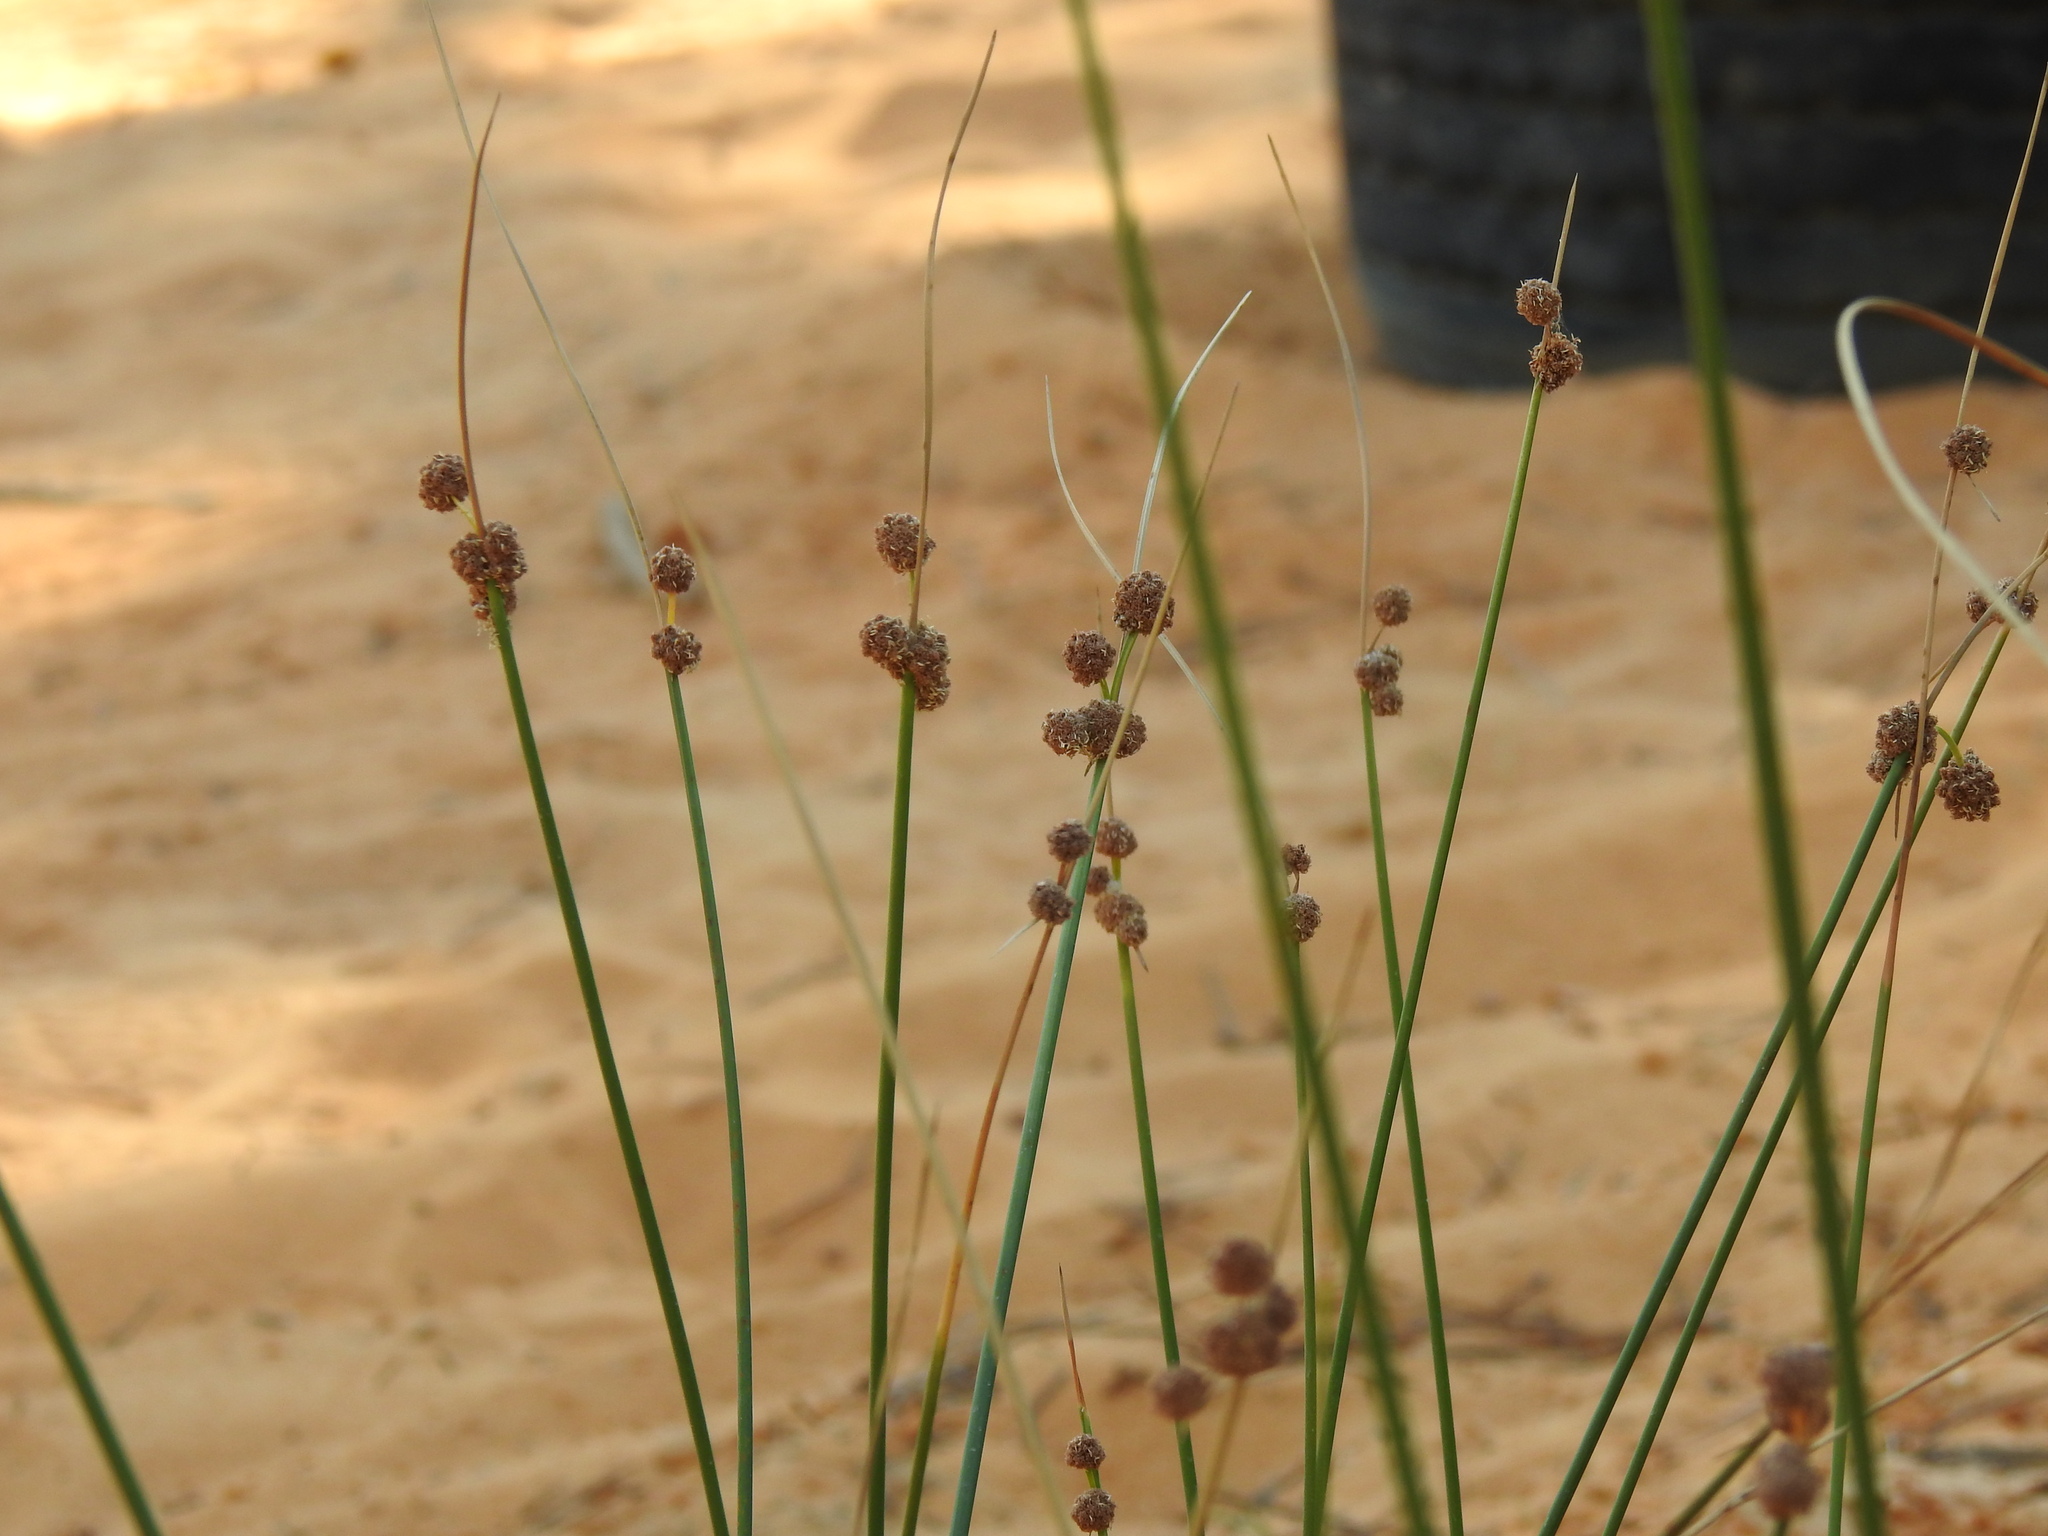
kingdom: Plantae
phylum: Tracheophyta
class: Liliopsida
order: Poales
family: Cyperaceae
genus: Scirpoides
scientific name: Scirpoides holoschoenus
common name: Round-headed club-rush
